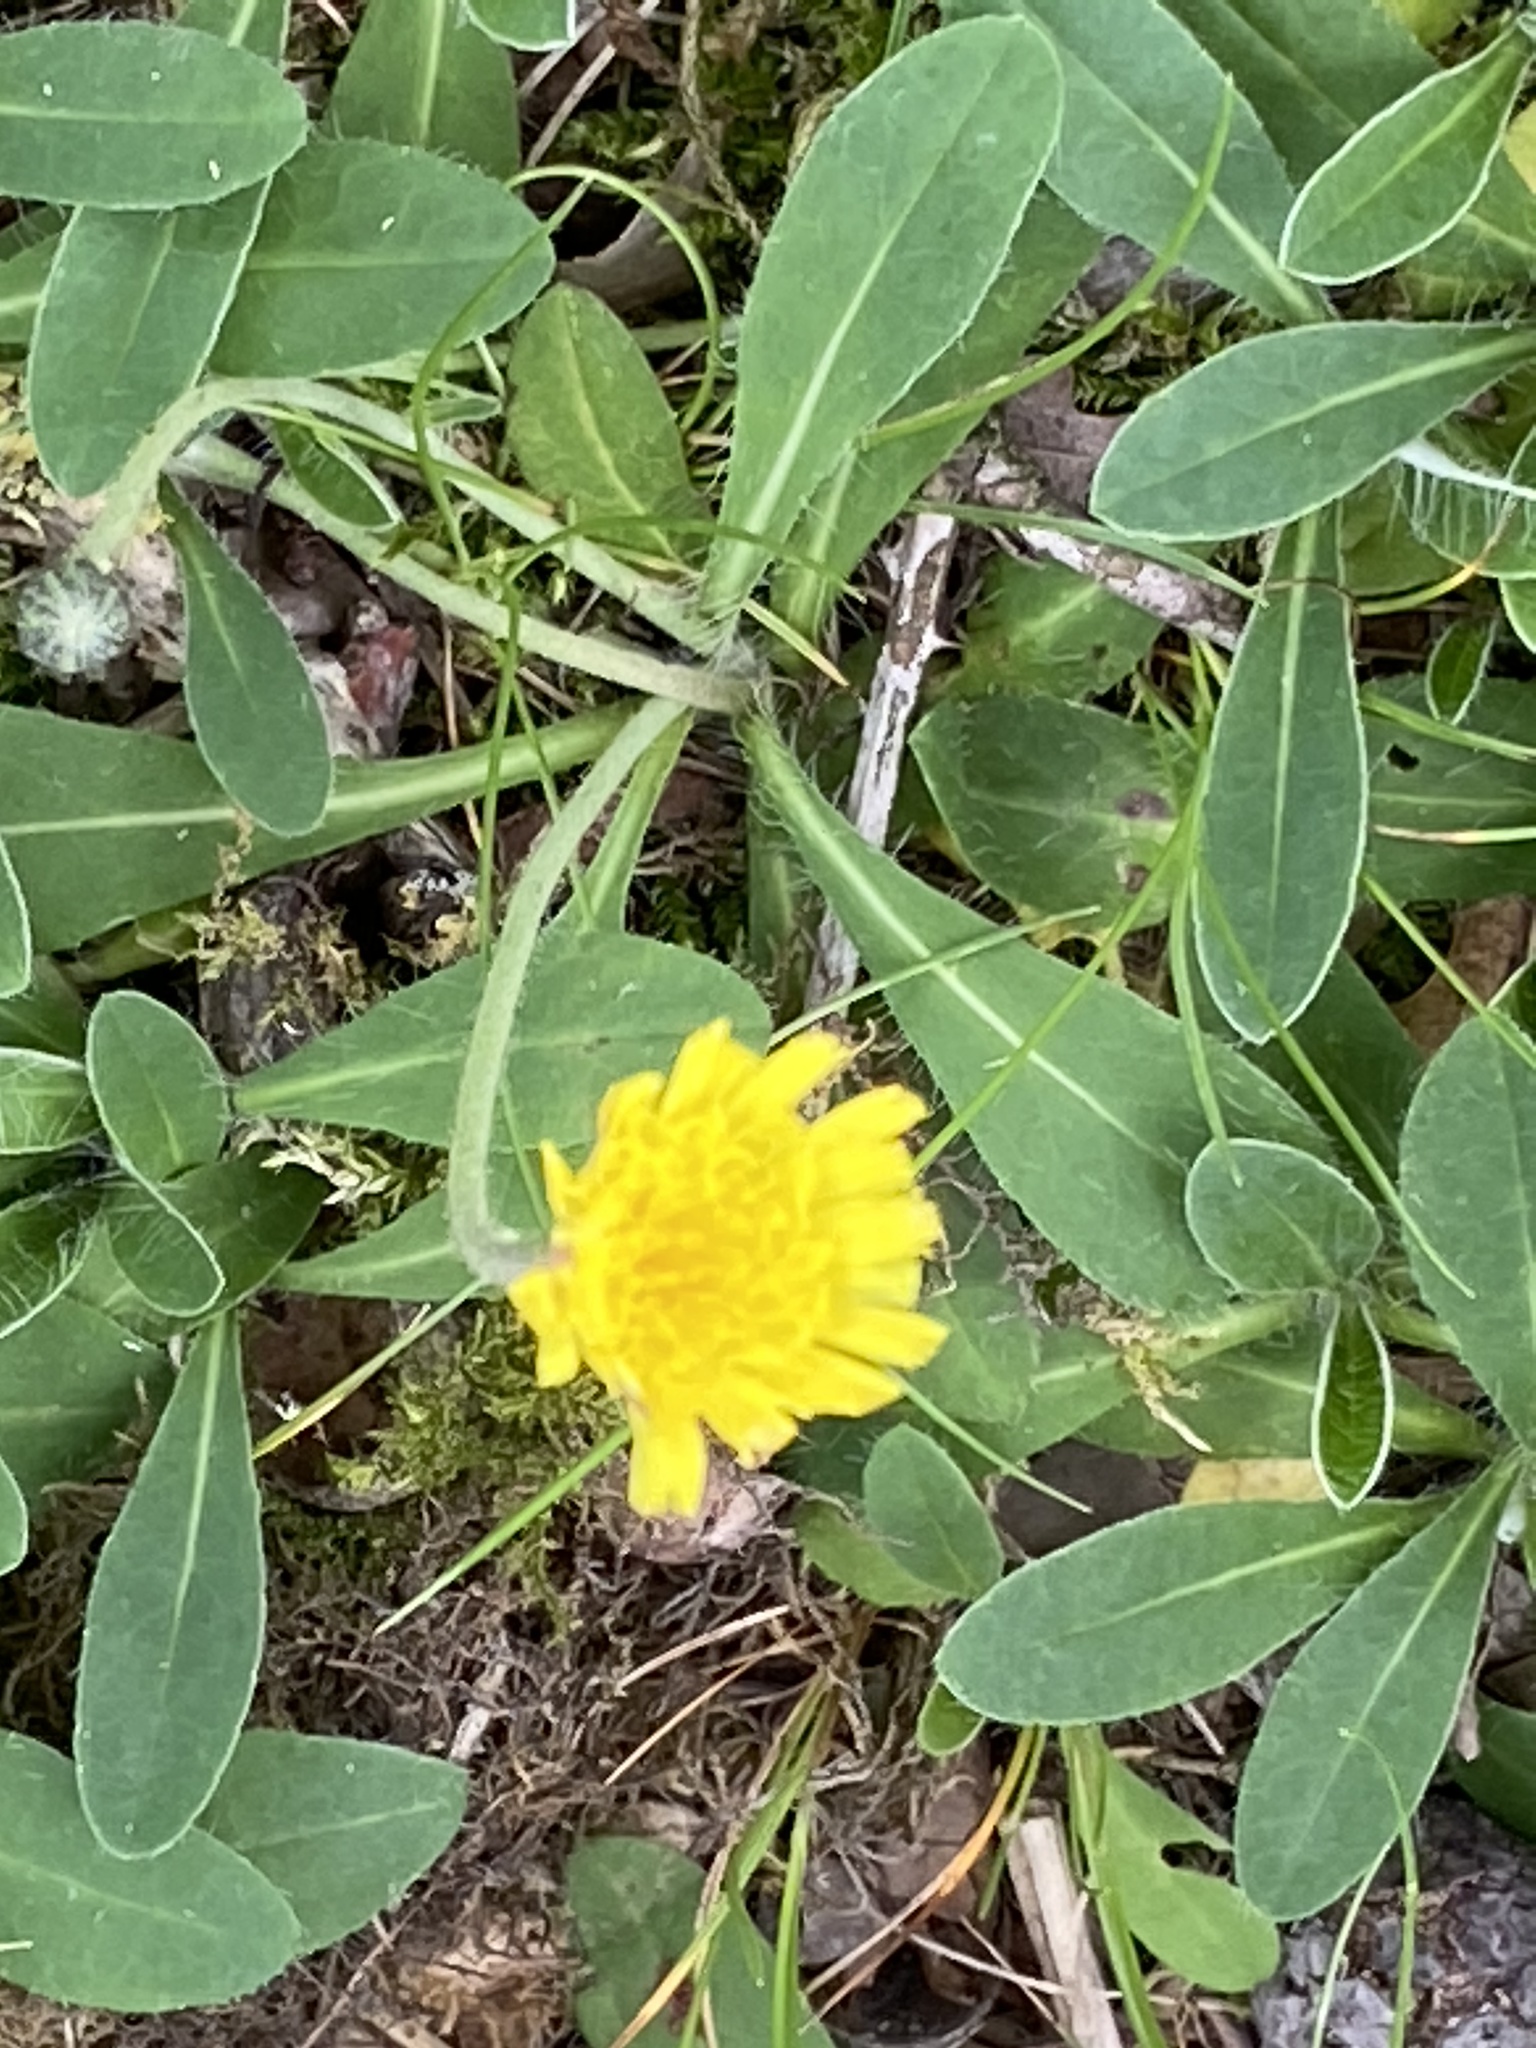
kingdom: Plantae
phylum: Tracheophyta
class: Magnoliopsida
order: Asterales
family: Asteraceae
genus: Pilosella
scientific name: Pilosella officinarum
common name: Mouse-ear hawkweed
